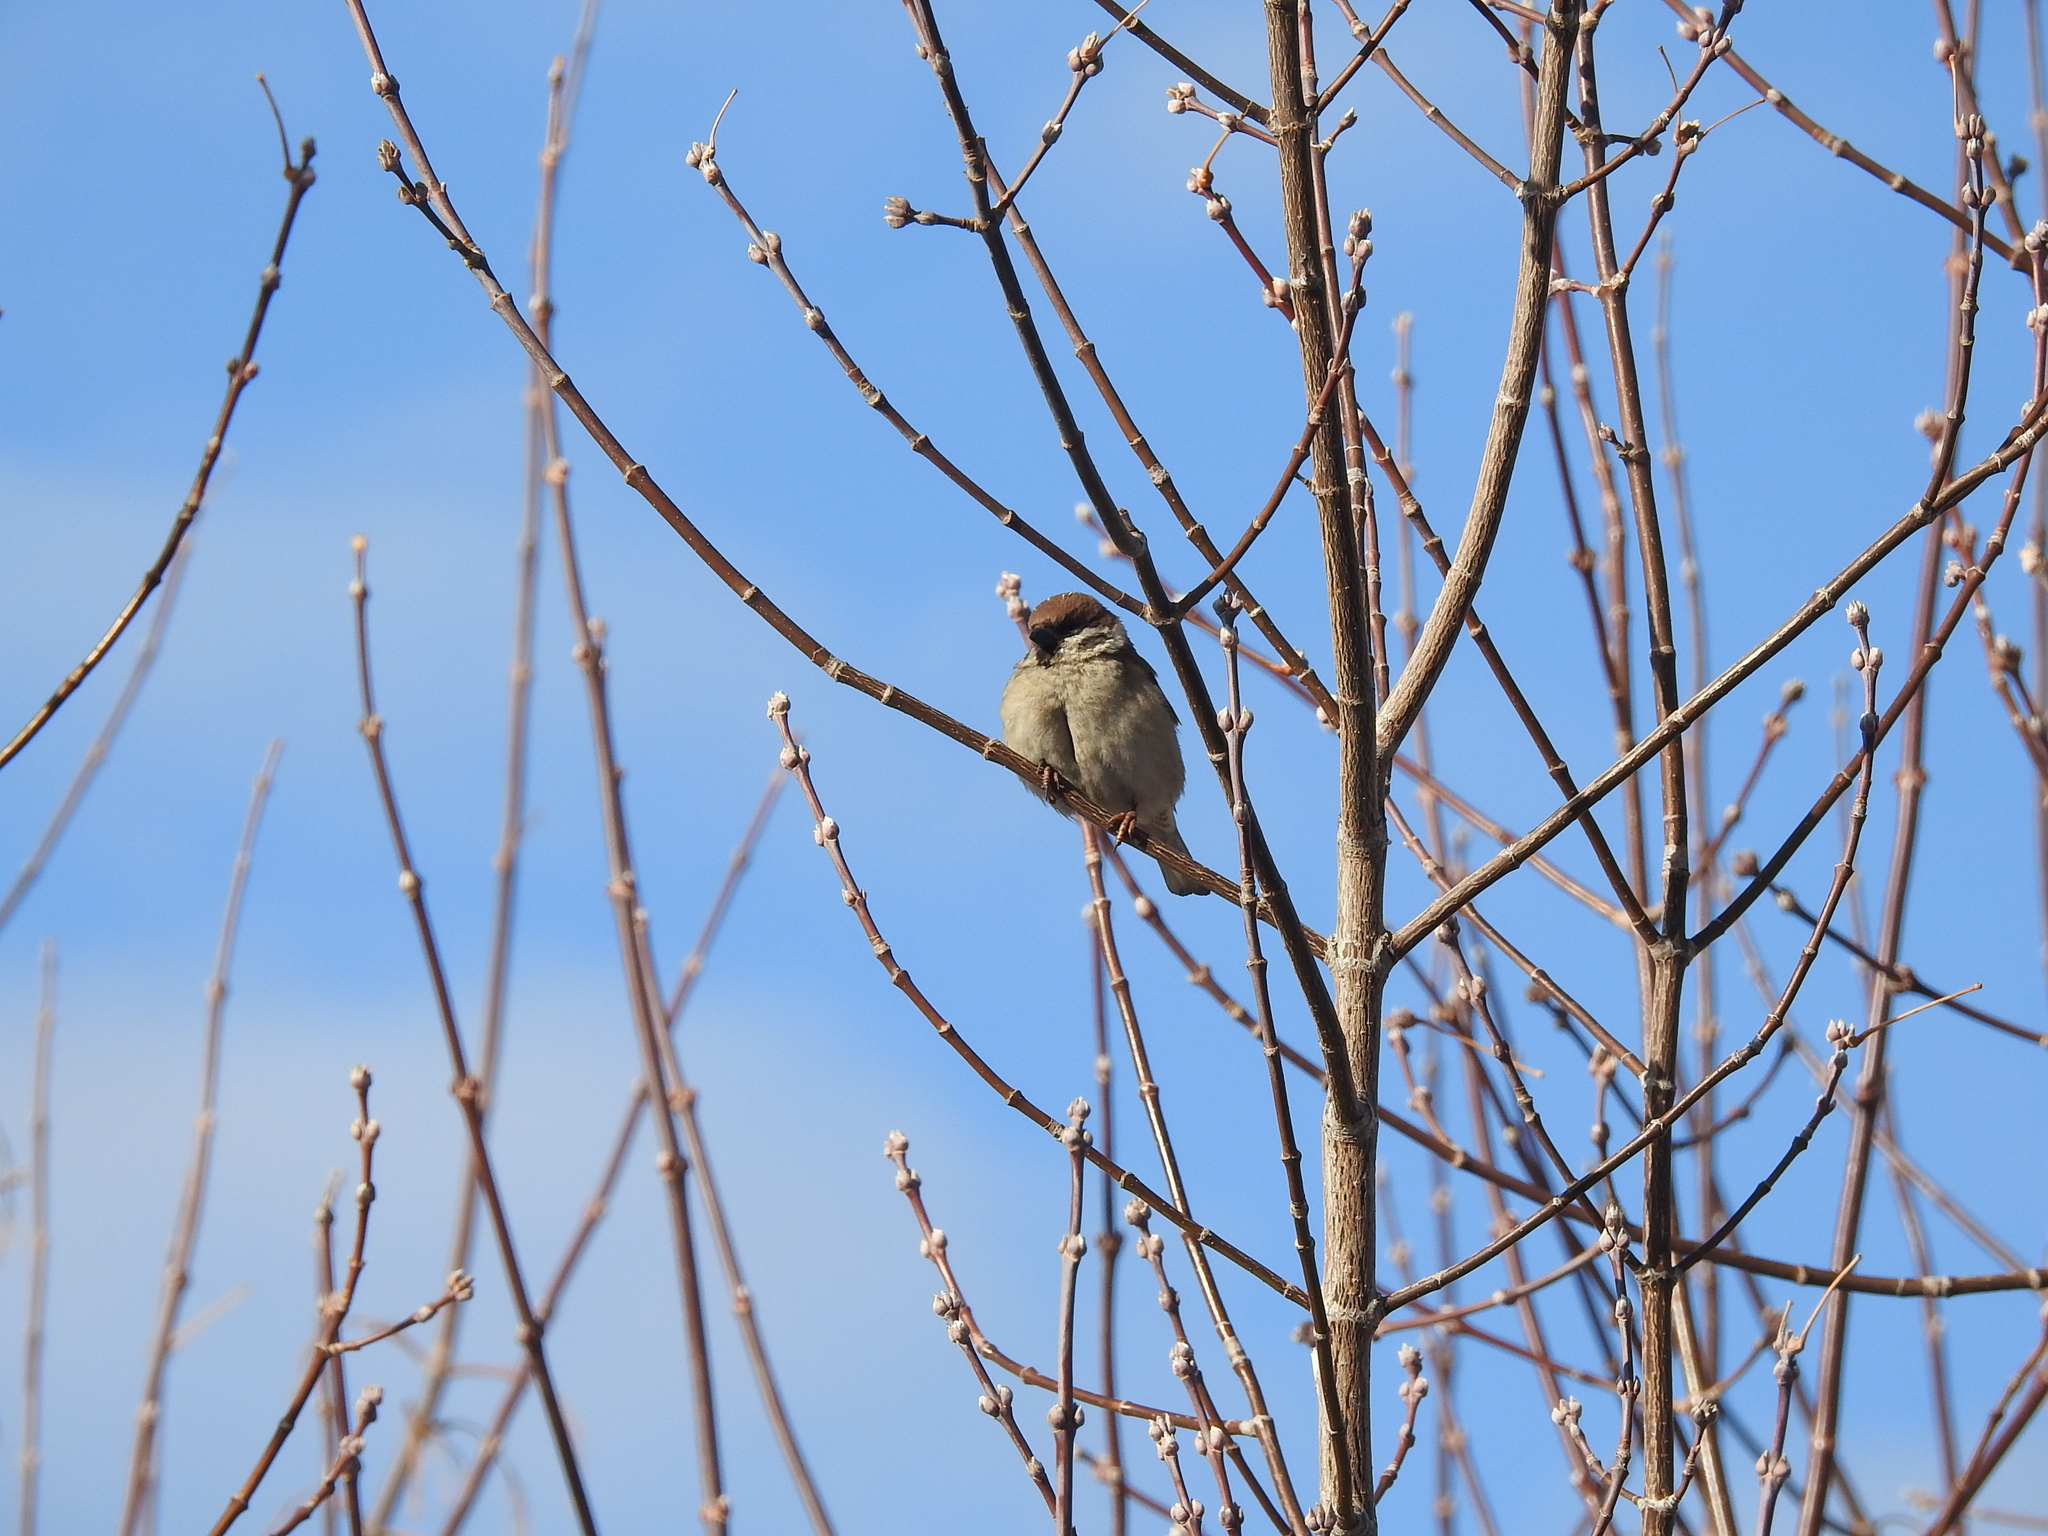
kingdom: Animalia
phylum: Chordata
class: Aves
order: Passeriformes
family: Passeridae
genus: Passer
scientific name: Passer montanus
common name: Eurasian tree sparrow
